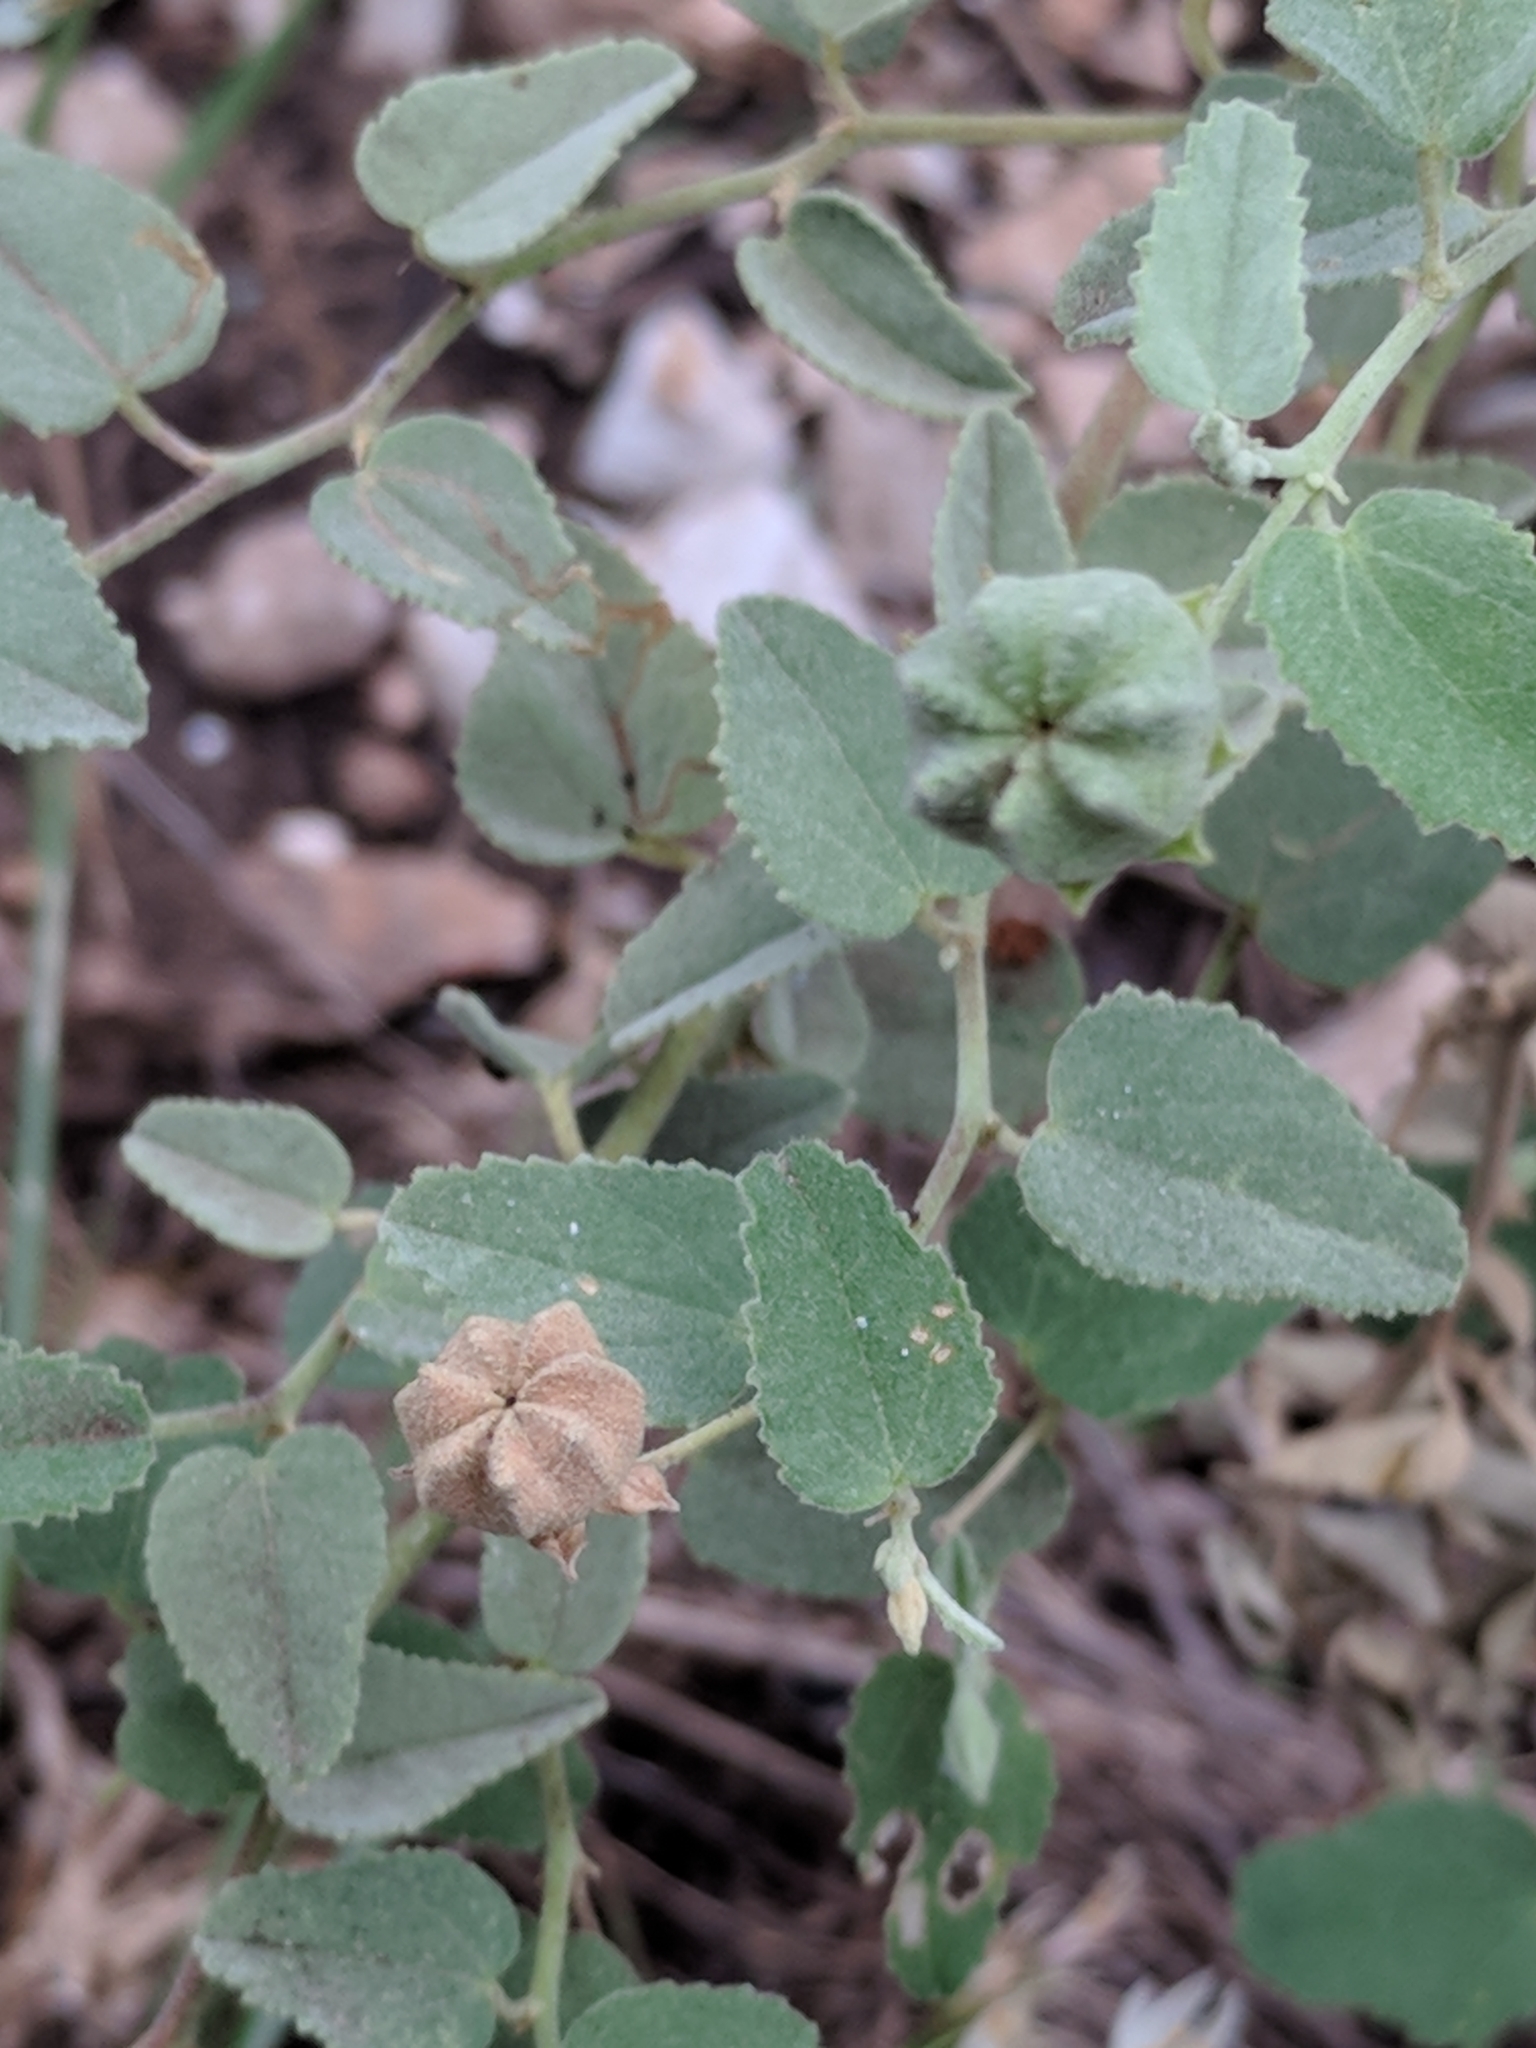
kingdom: Plantae
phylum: Tracheophyta
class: Magnoliopsida
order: Malvales
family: Malvaceae
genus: Abutilon
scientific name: Abutilon fruticosum
